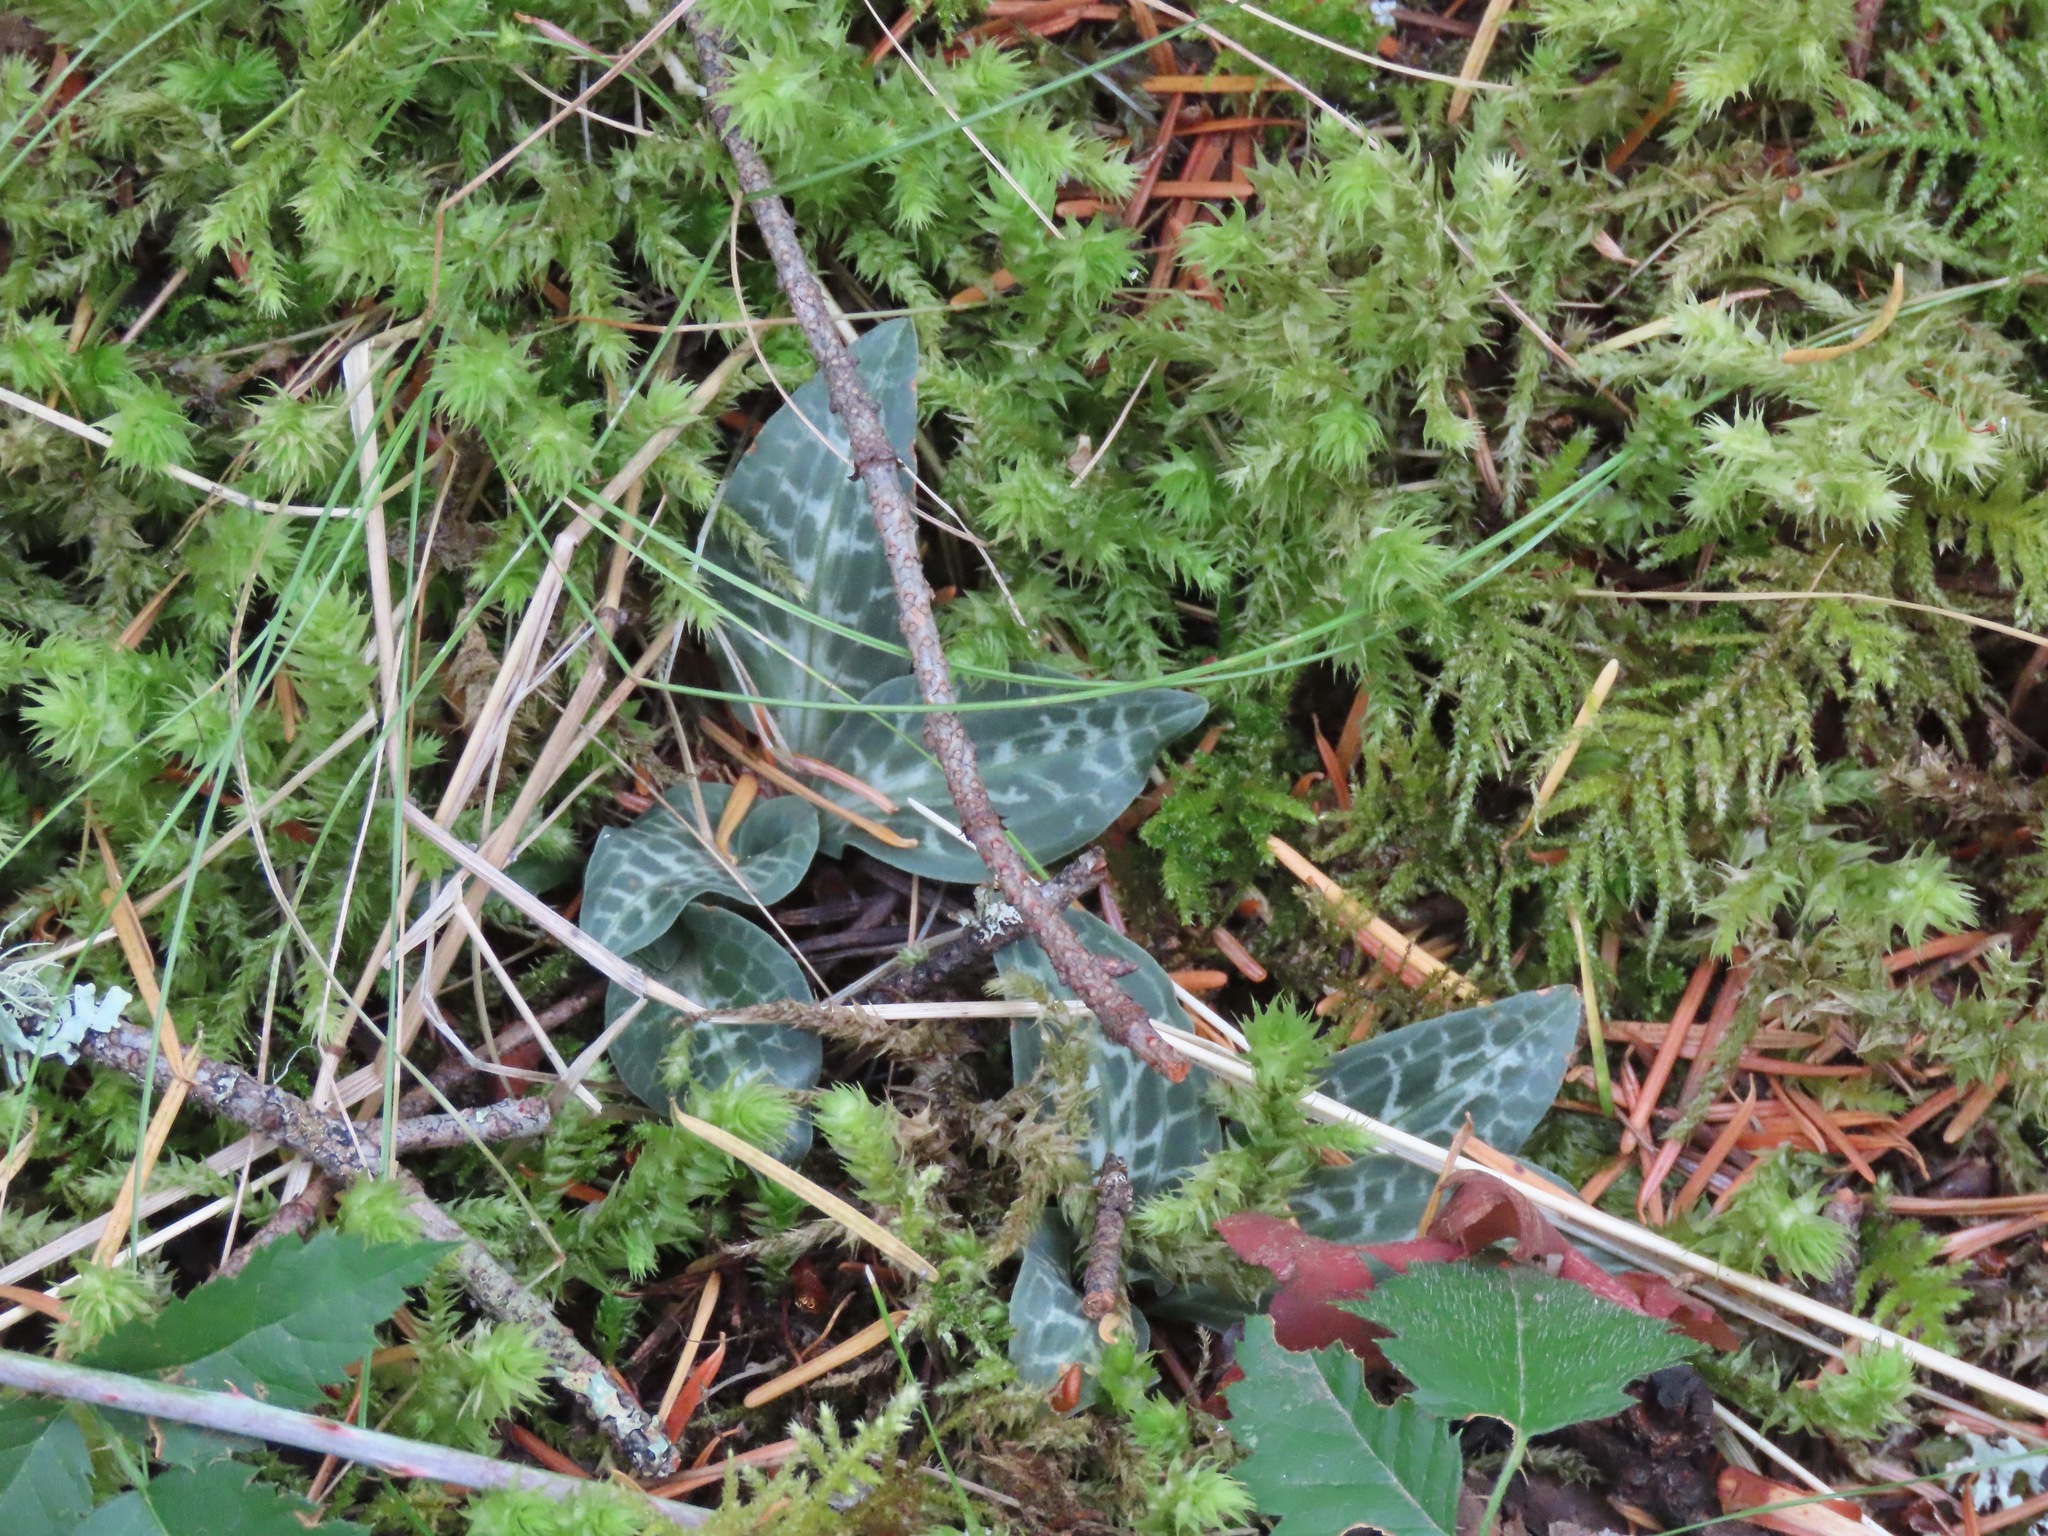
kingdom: Plantae
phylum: Tracheophyta
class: Liliopsida
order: Asparagales
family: Orchidaceae
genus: Goodyera
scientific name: Goodyera oblongifolia
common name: Giant rattlesnake-plantain
